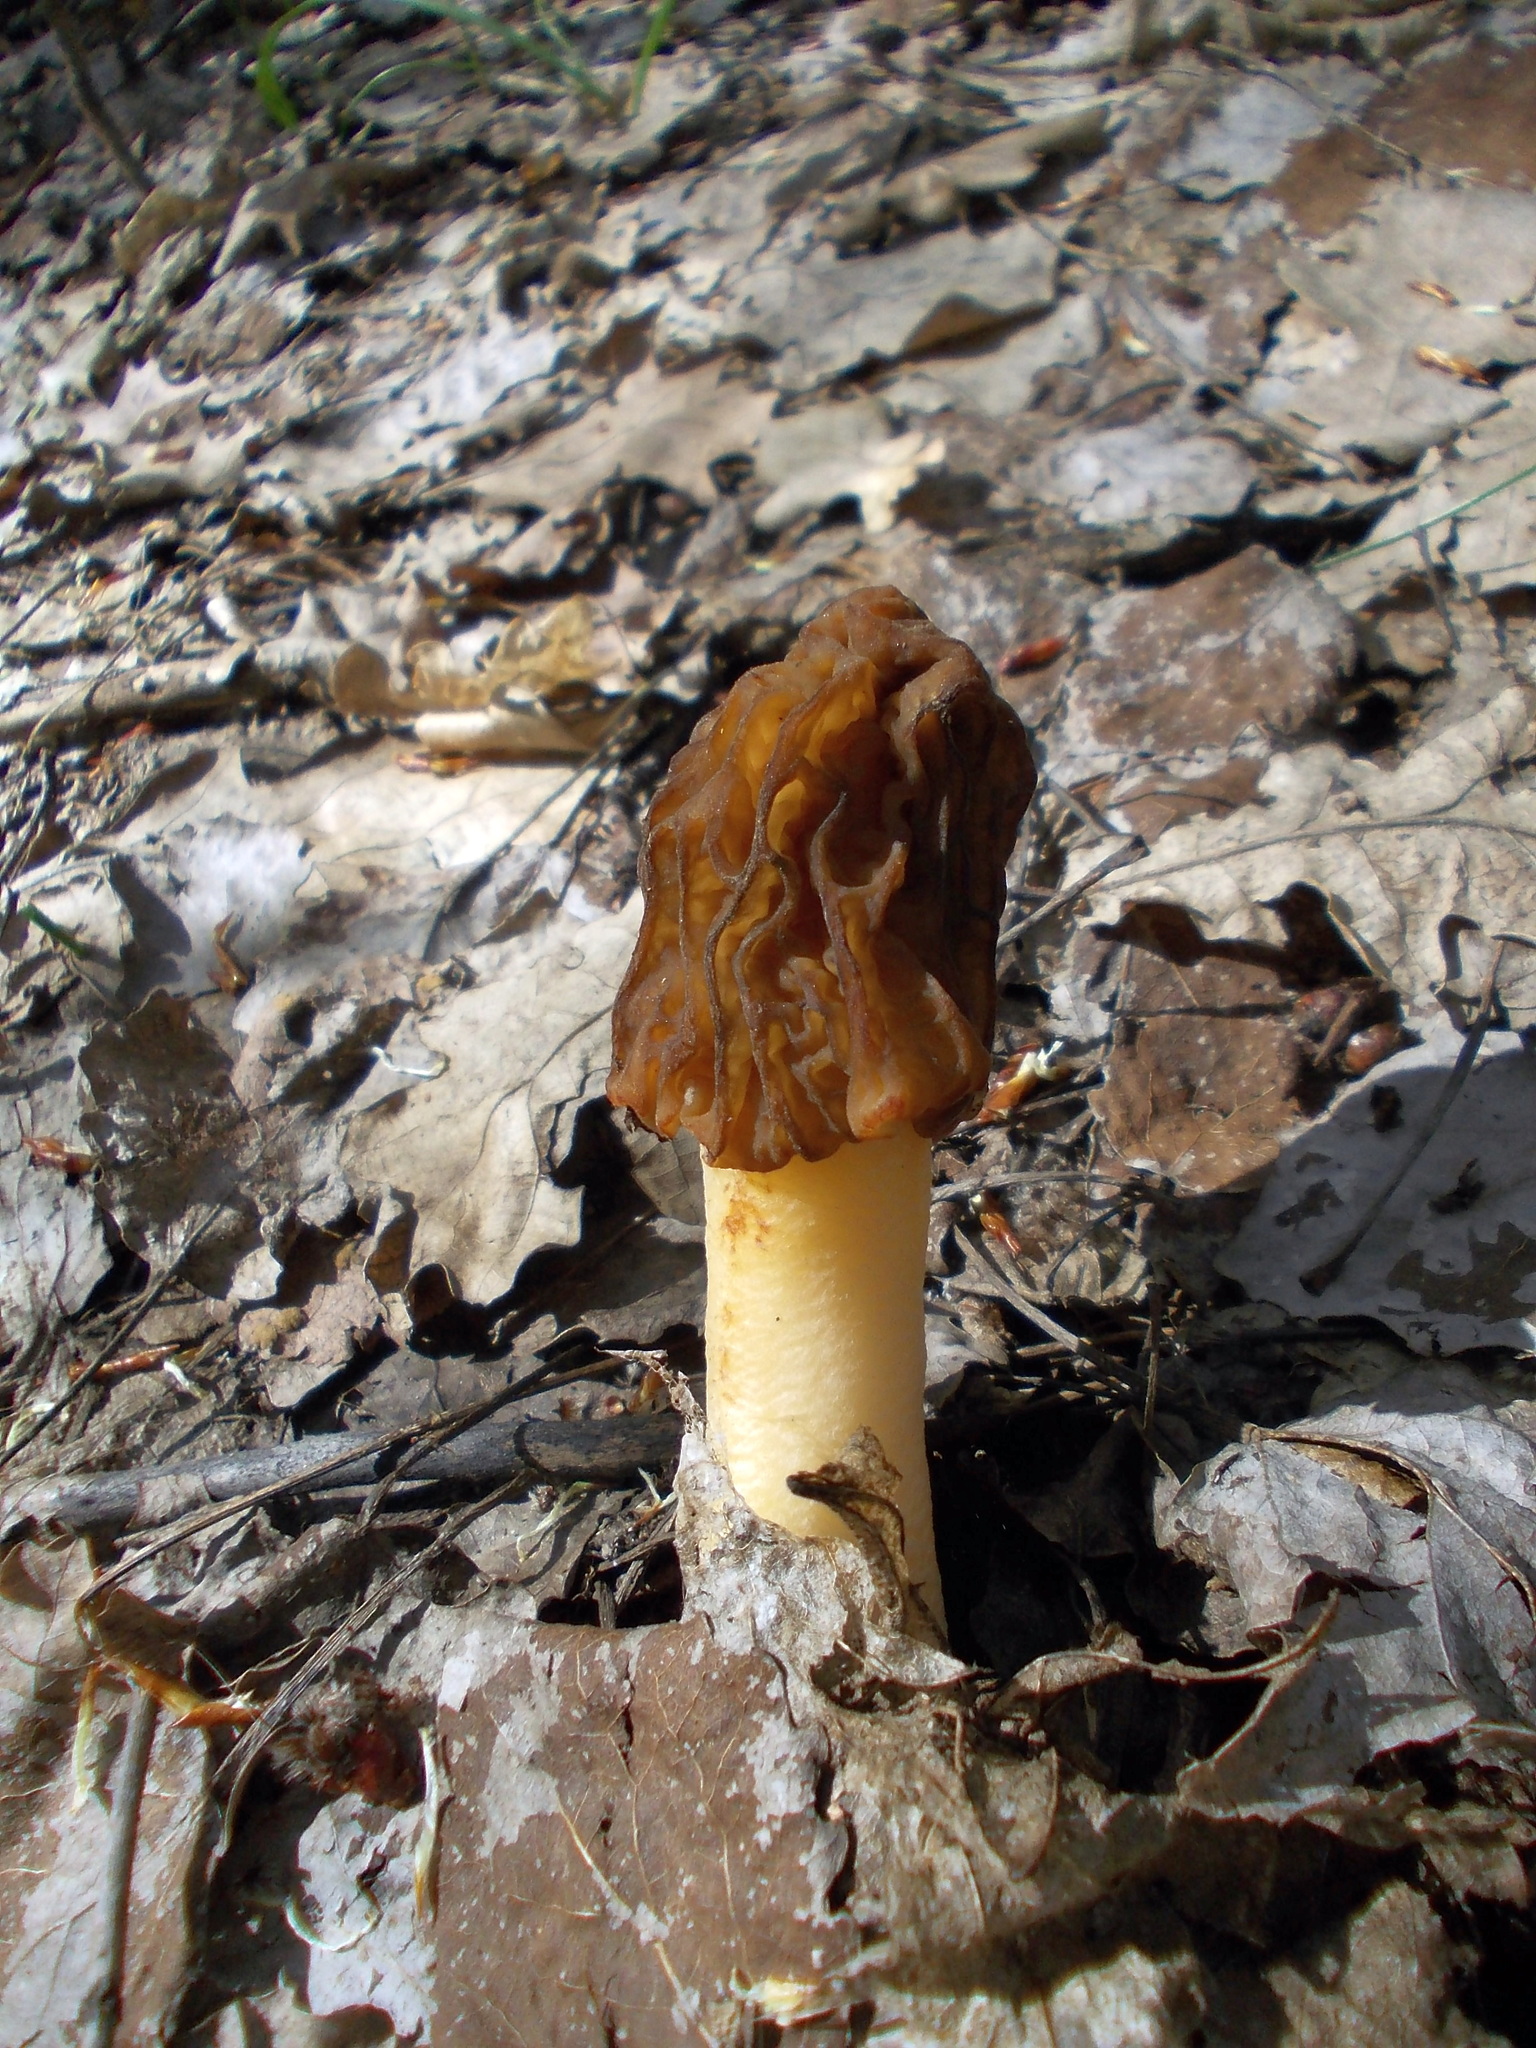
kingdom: Fungi
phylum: Ascomycota
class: Pezizomycetes
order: Pezizales
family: Morchellaceae
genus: Verpa
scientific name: Verpa bohemica
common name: Wrinkled thimble morel
